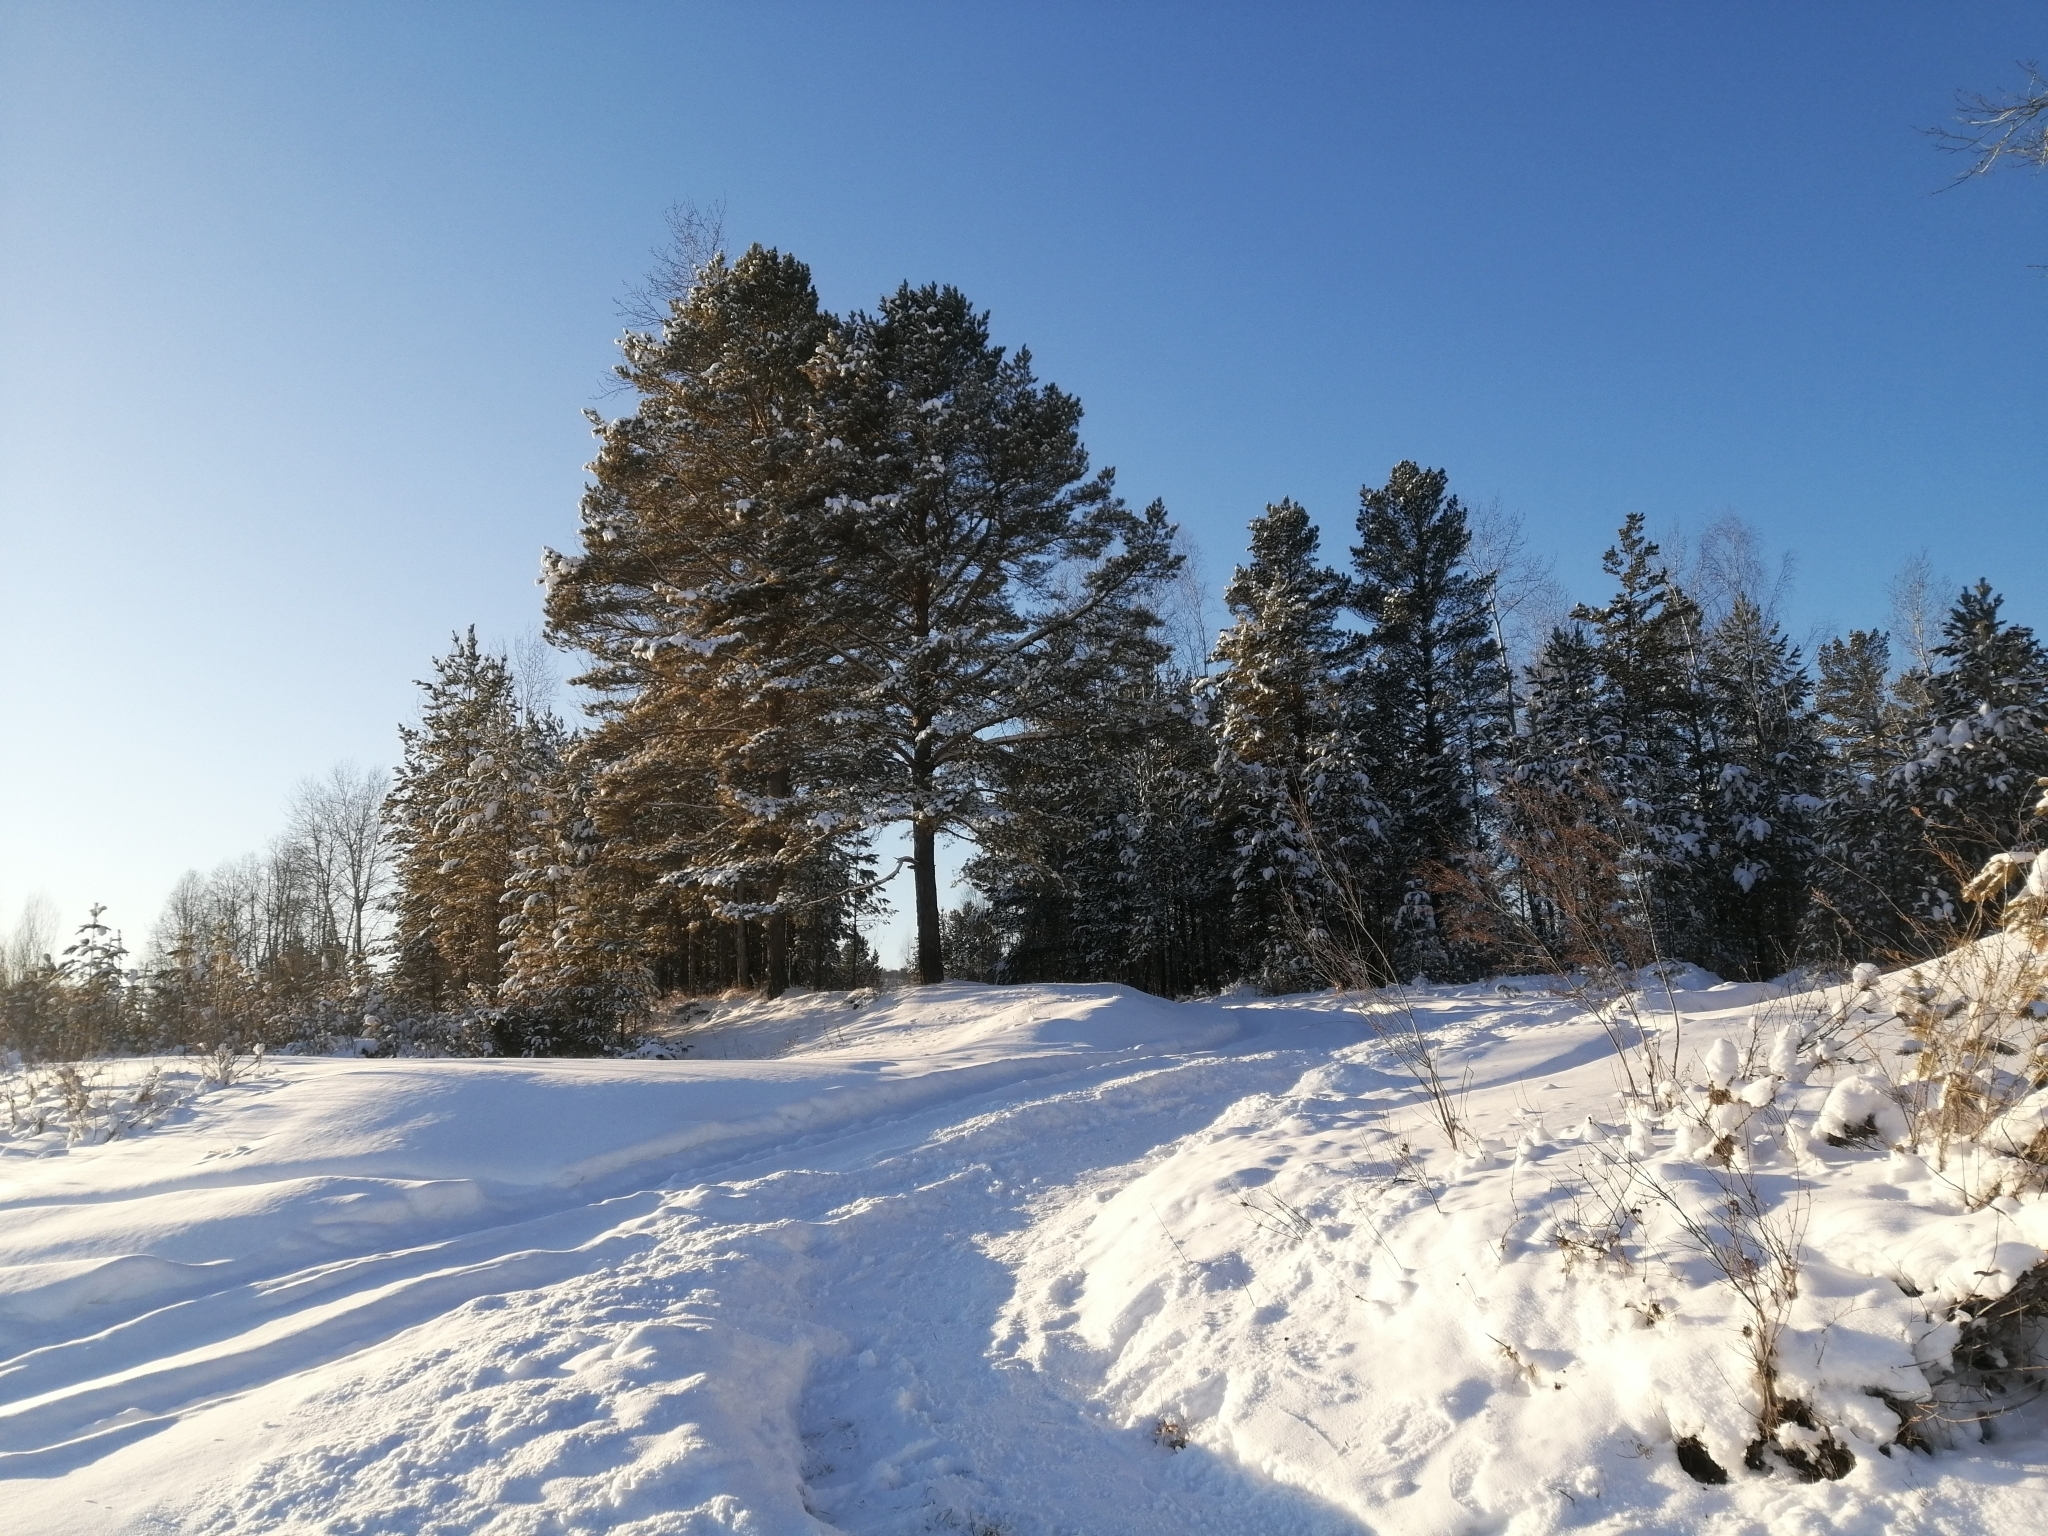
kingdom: Plantae
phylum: Tracheophyta
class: Pinopsida
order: Pinales
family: Pinaceae
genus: Pinus
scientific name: Pinus sylvestris
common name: Scots pine
